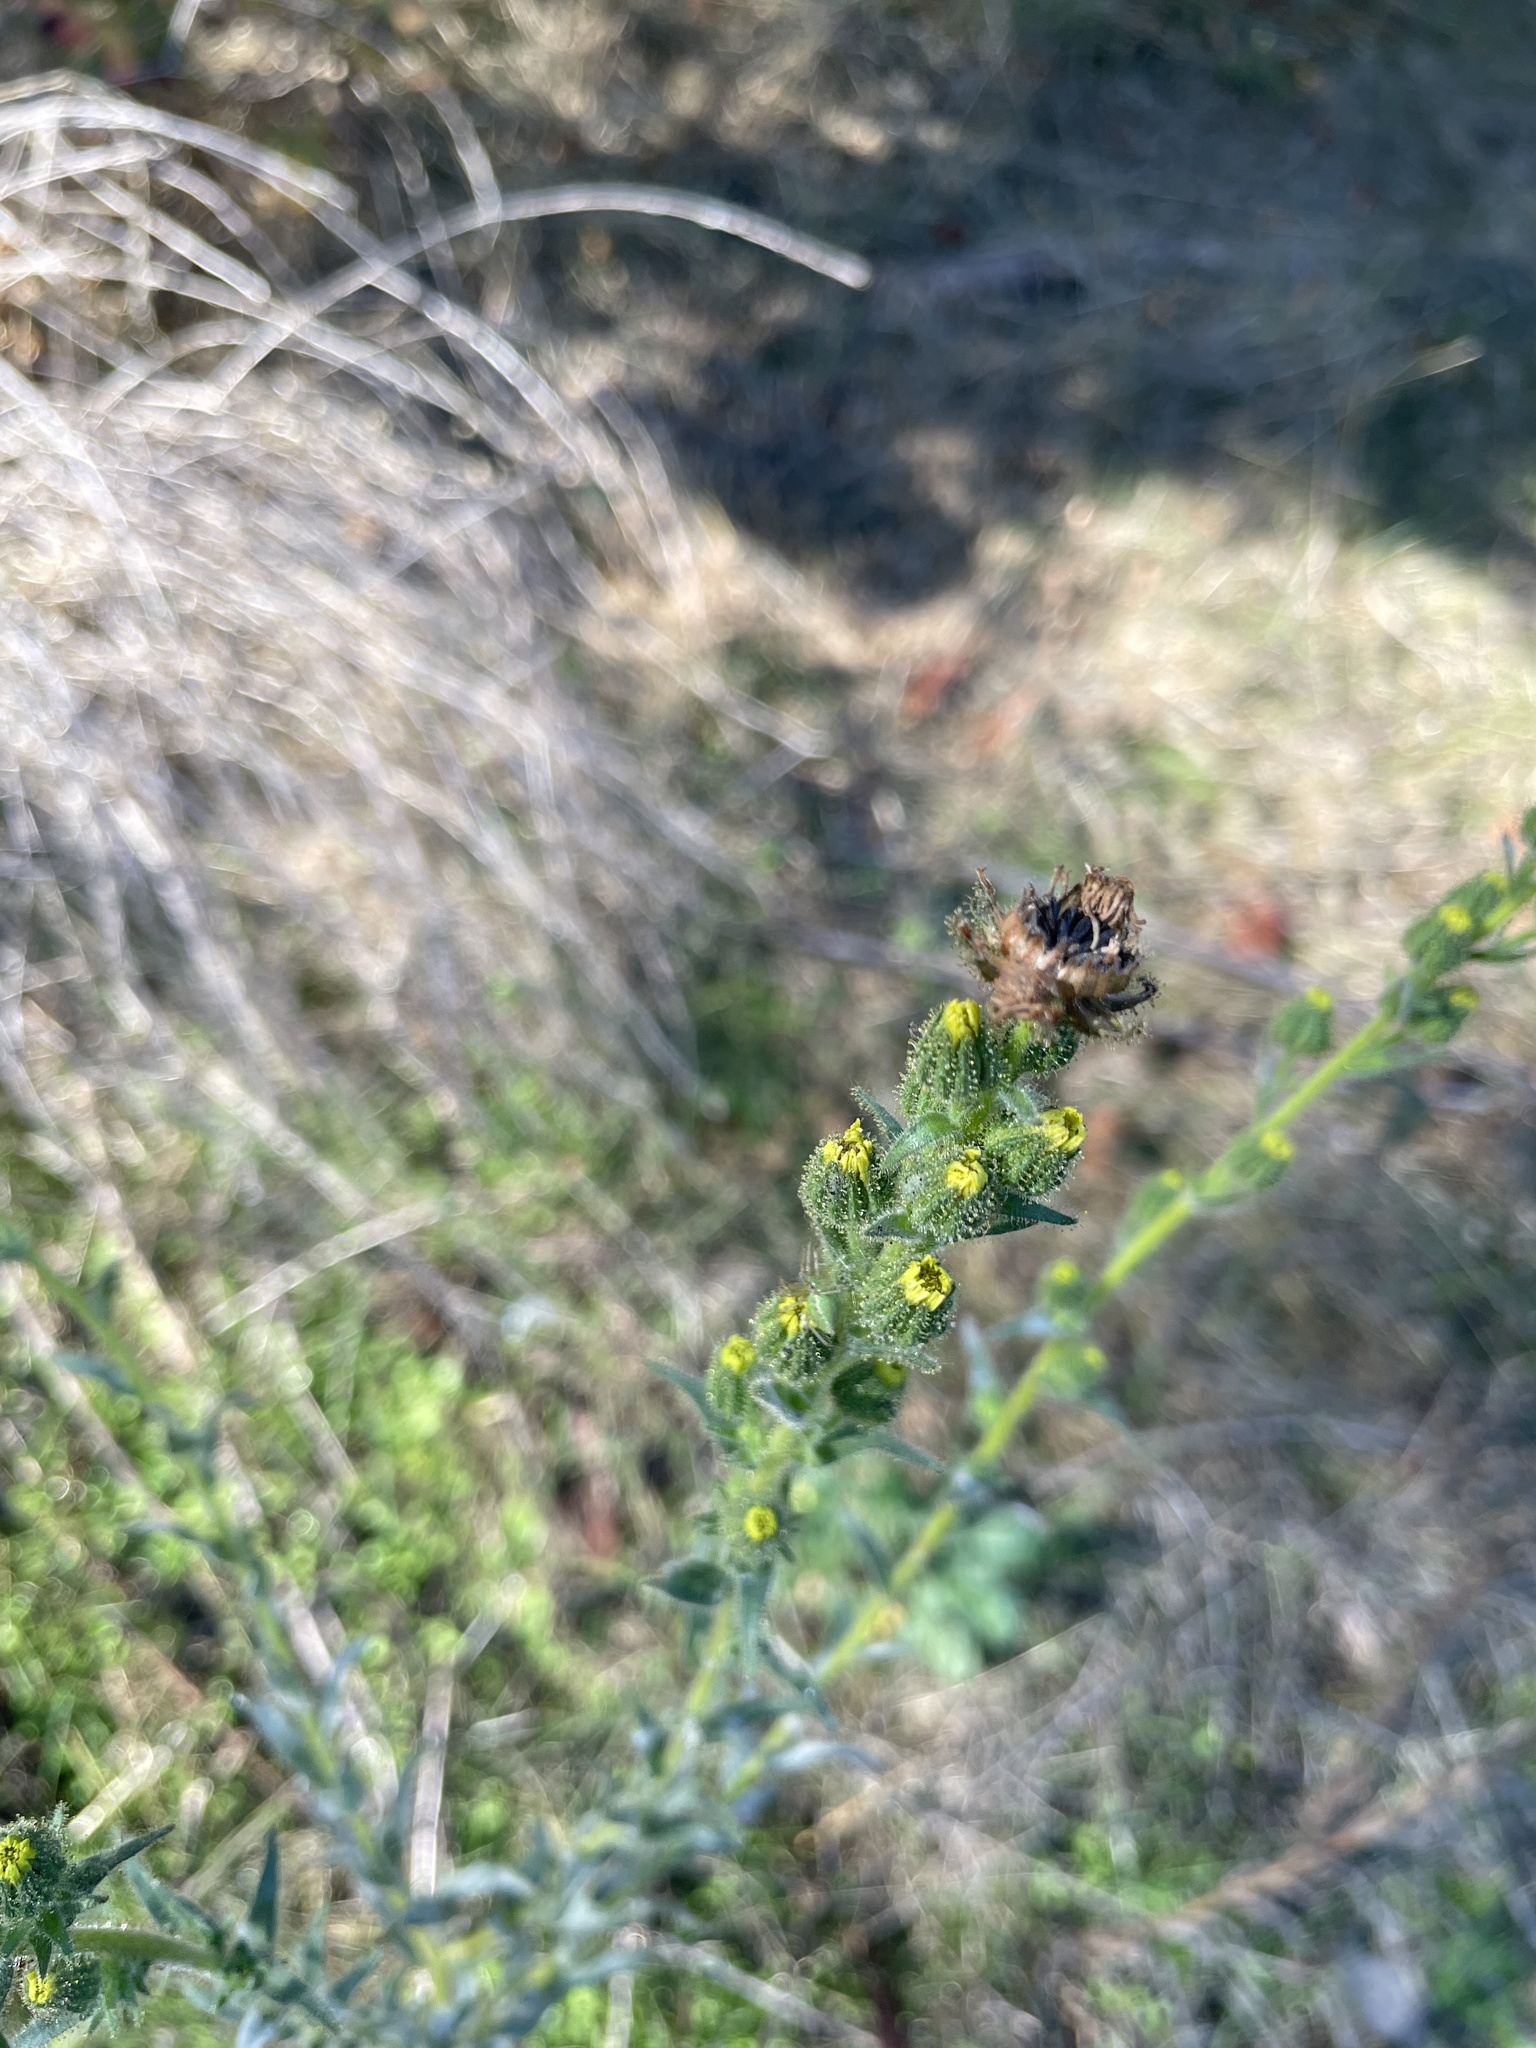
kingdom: Plantae
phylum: Tracheophyta
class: Magnoliopsida
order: Asterales
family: Asteraceae
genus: Madia
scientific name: Madia sativa
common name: Coast tarweed
